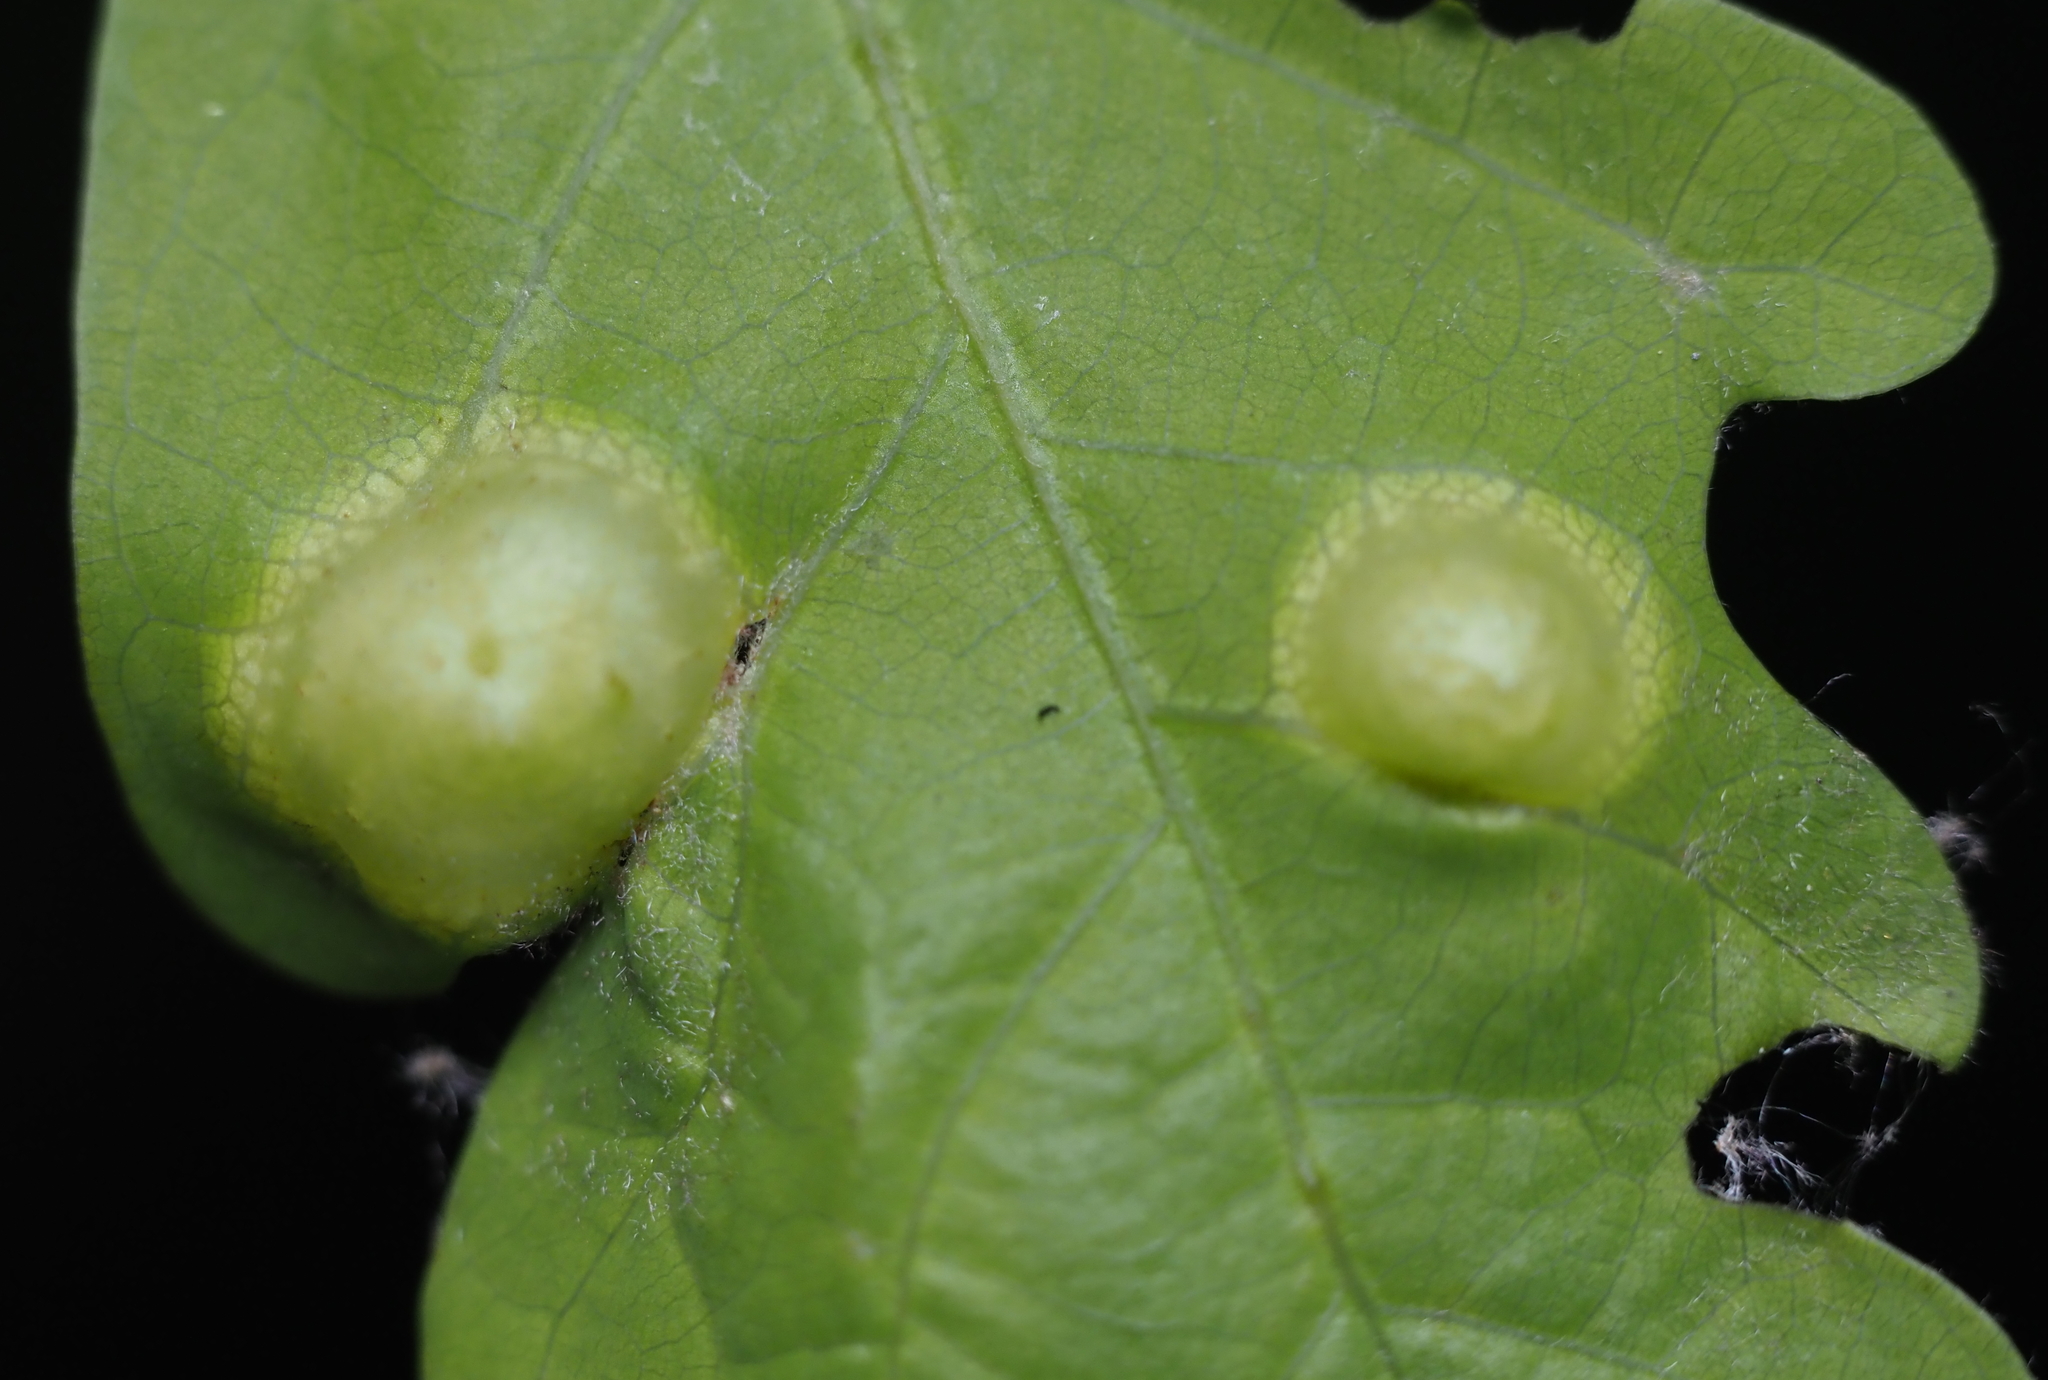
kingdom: Animalia
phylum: Arthropoda
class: Insecta
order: Hymenoptera
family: Cynipidae
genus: Callirhytis
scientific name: Callirhytis
